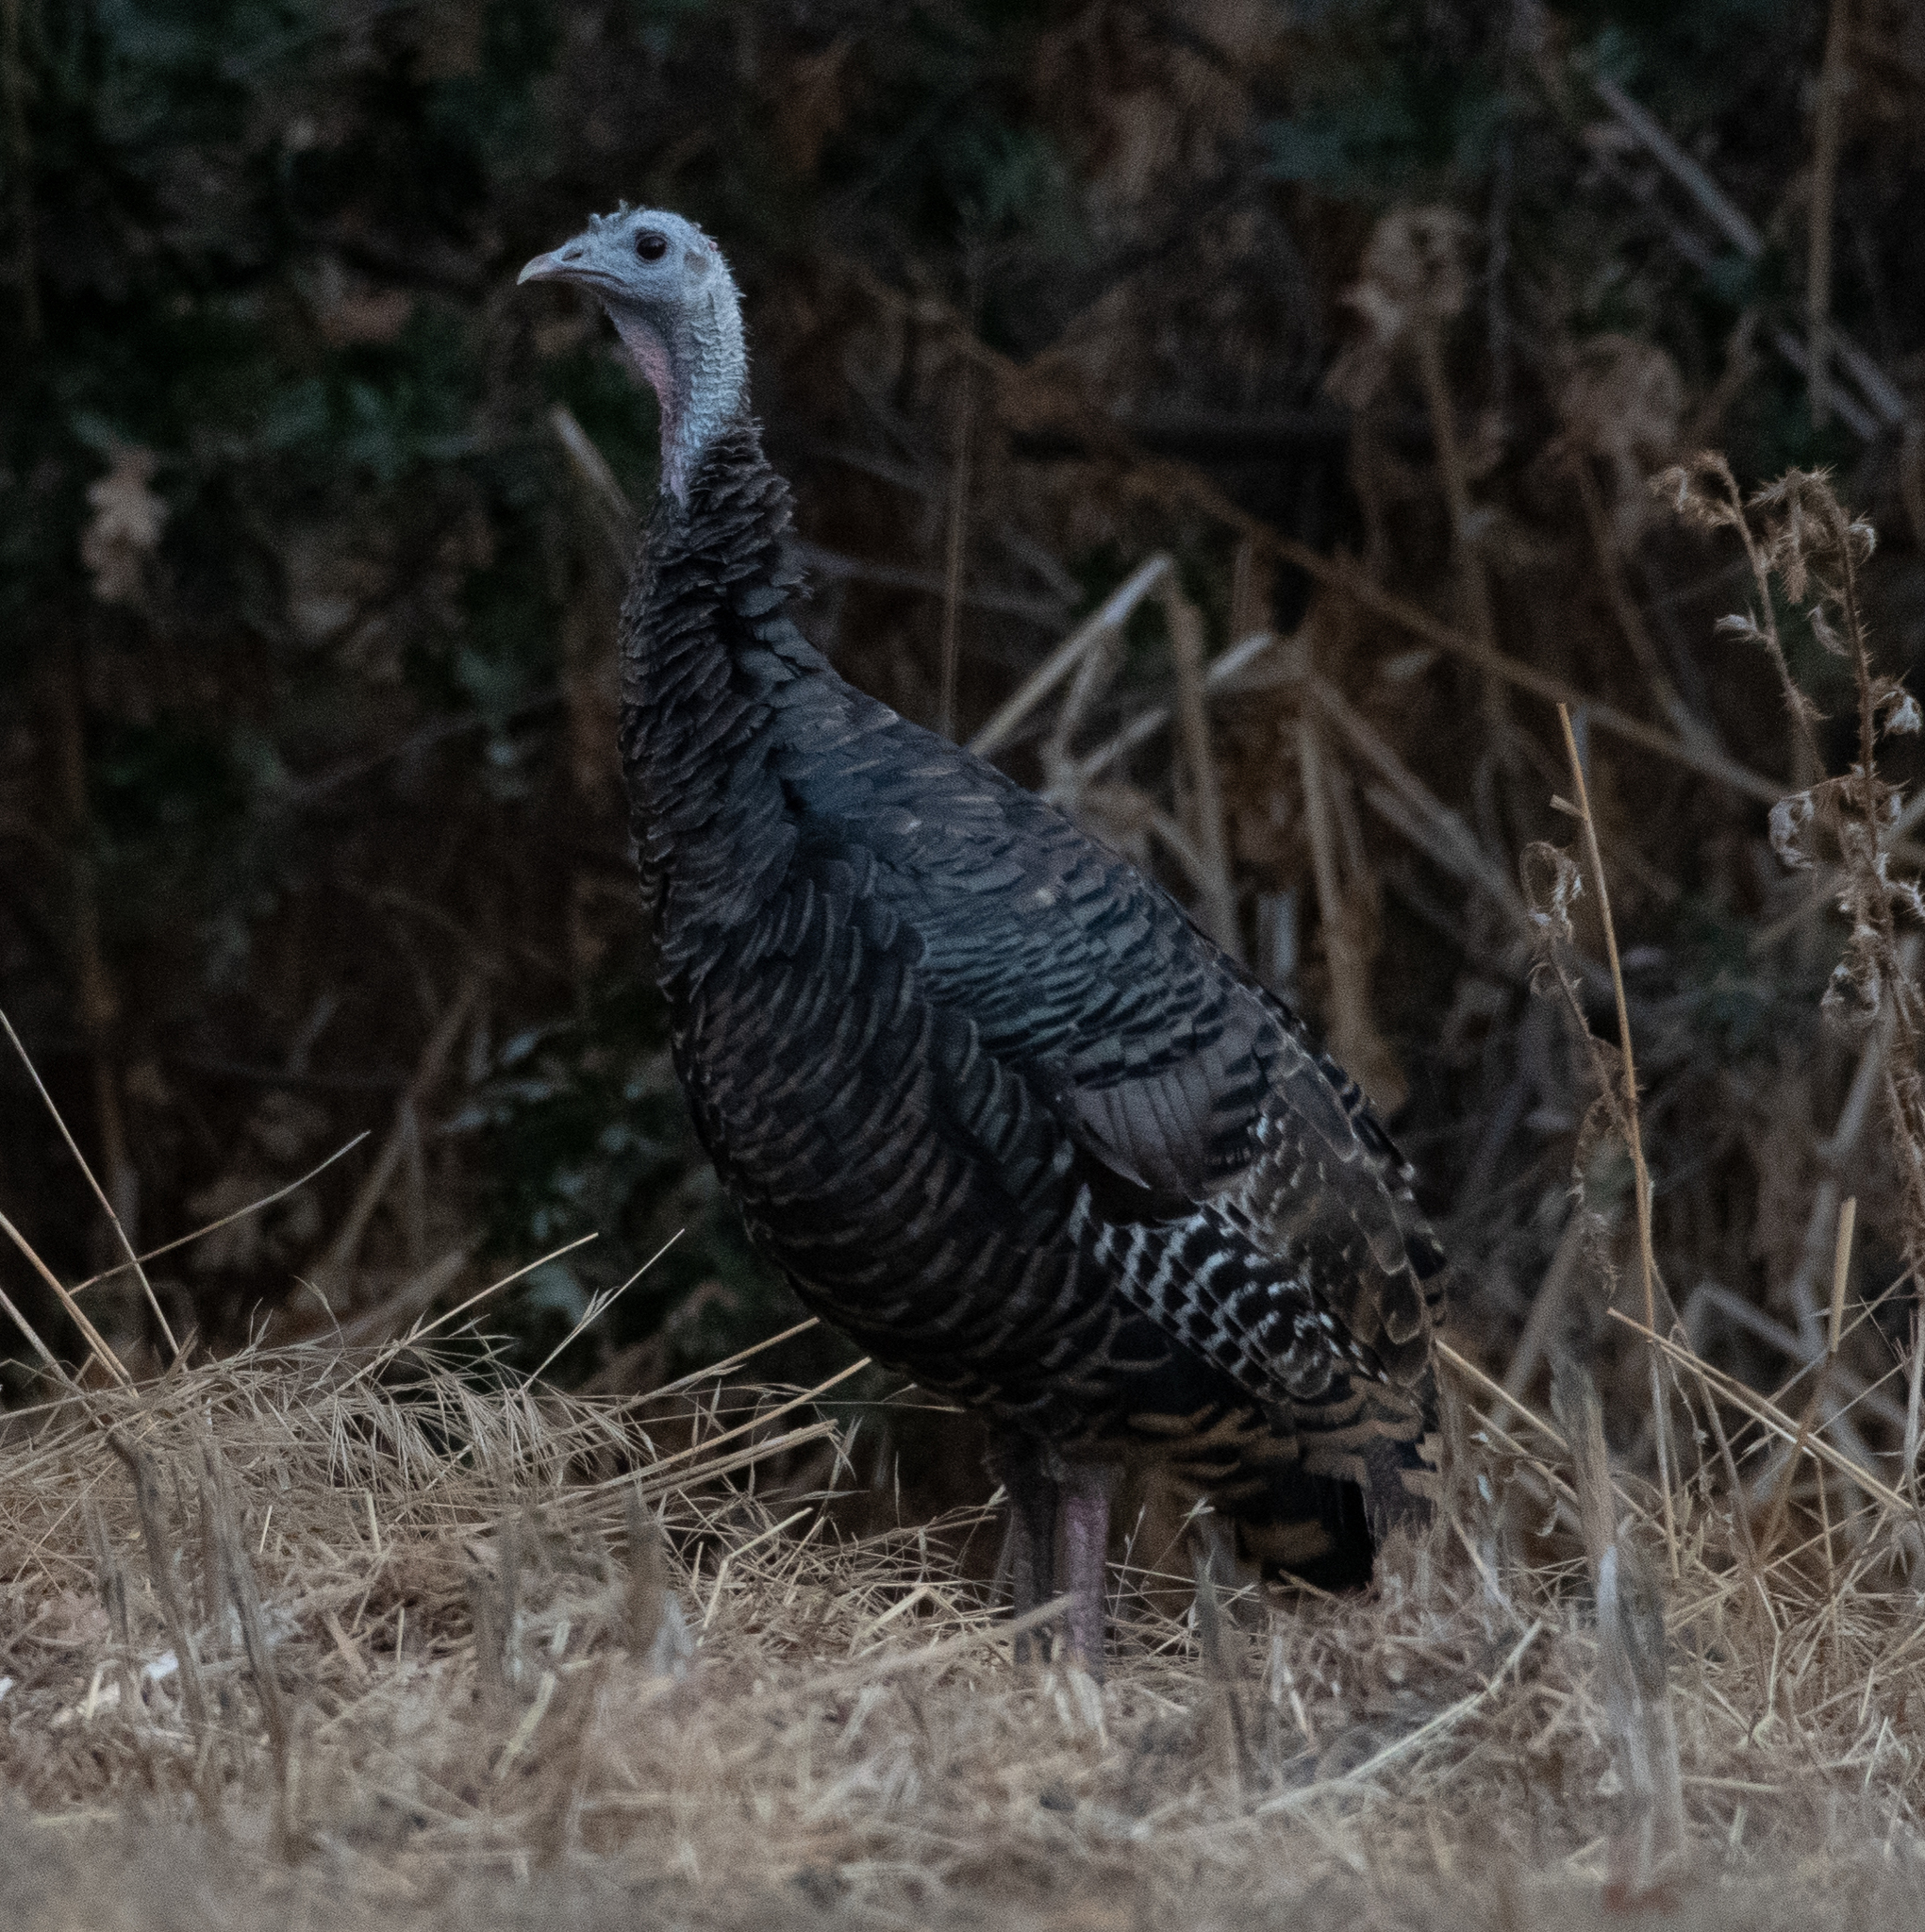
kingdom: Animalia
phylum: Chordata
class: Aves
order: Galliformes
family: Phasianidae
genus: Meleagris
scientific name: Meleagris gallopavo
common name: Wild turkey
